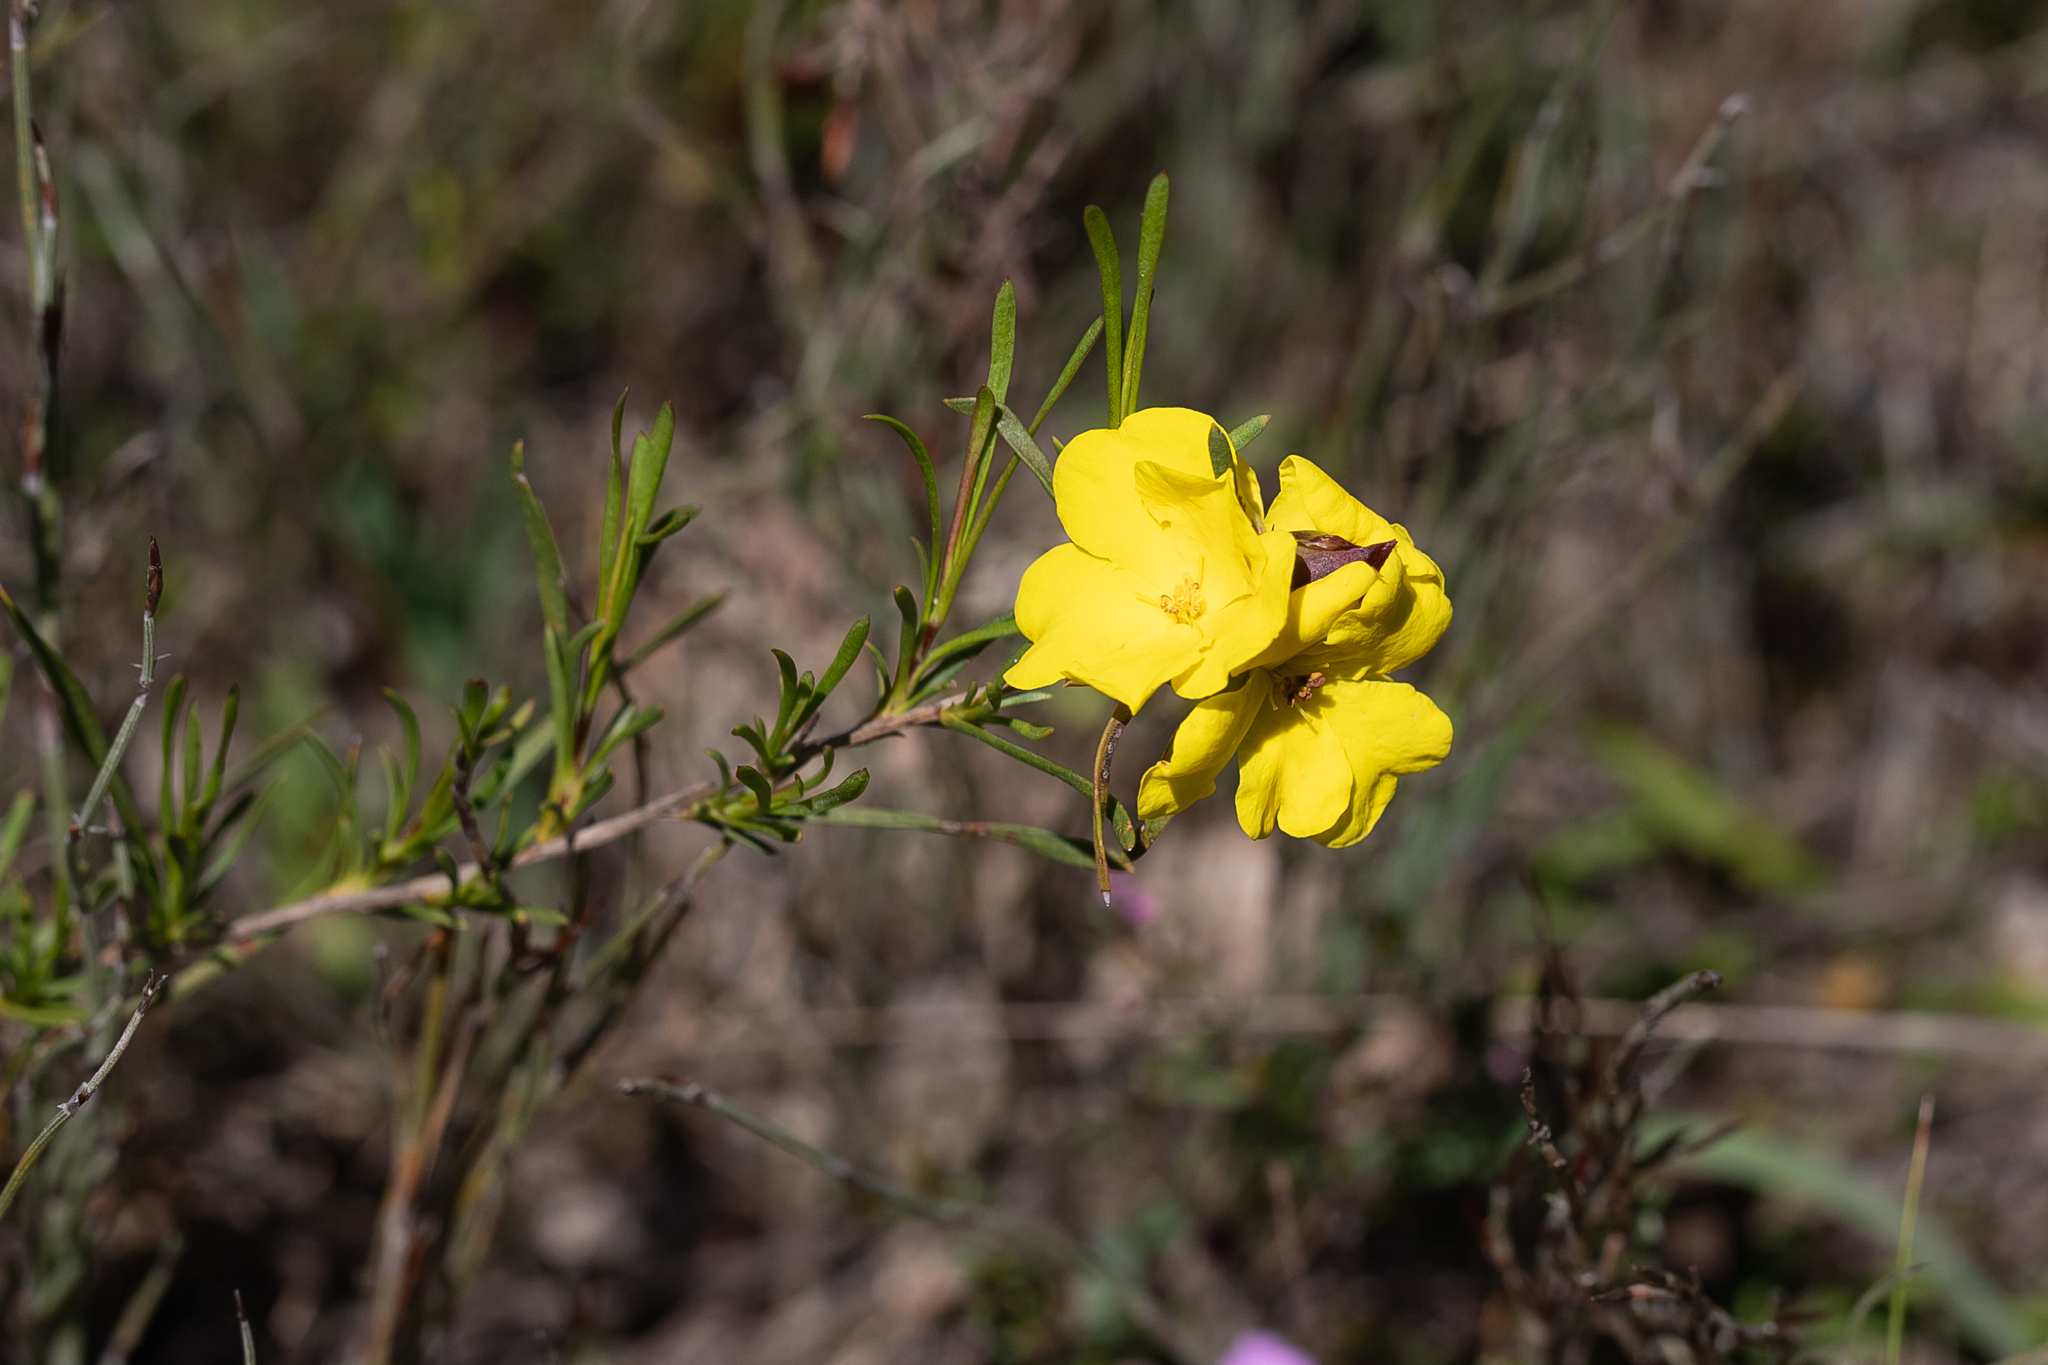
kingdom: Plantae
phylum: Tracheophyta
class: Magnoliopsida
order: Dilleniales
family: Dilleniaceae
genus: Hibbertia
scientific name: Hibbertia virgata
